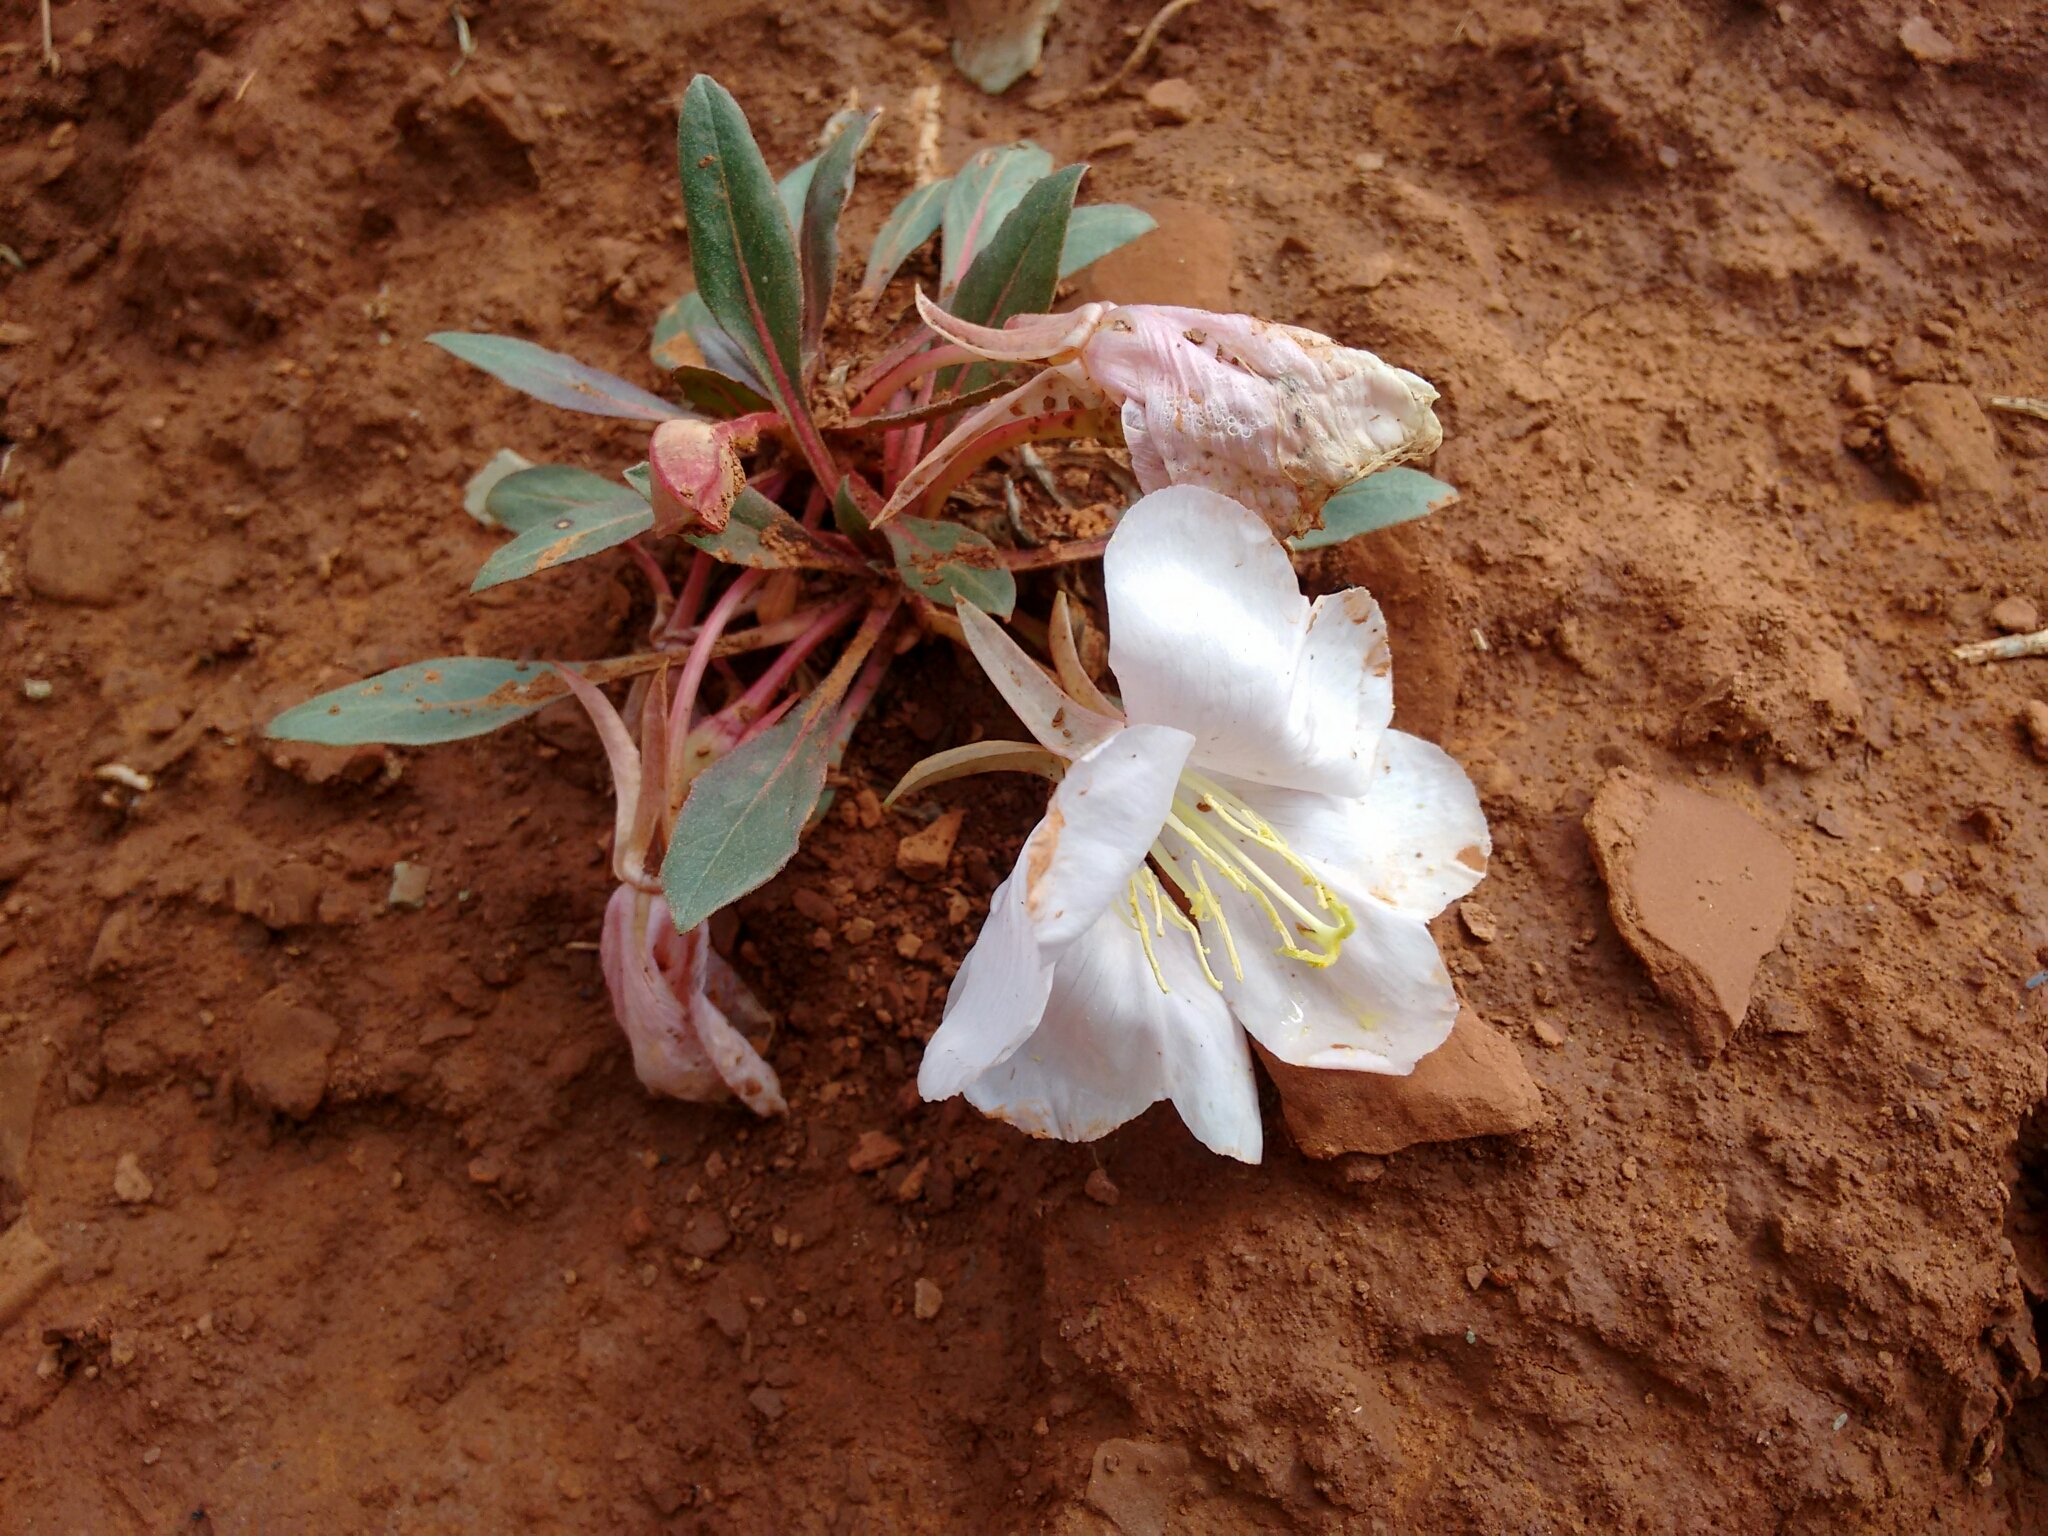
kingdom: Plantae
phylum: Tracheophyta
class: Magnoliopsida
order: Myrtales
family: Onagraceae
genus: Oenothera
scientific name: Oenothera cespitosa
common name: Tufted evening-primrose
